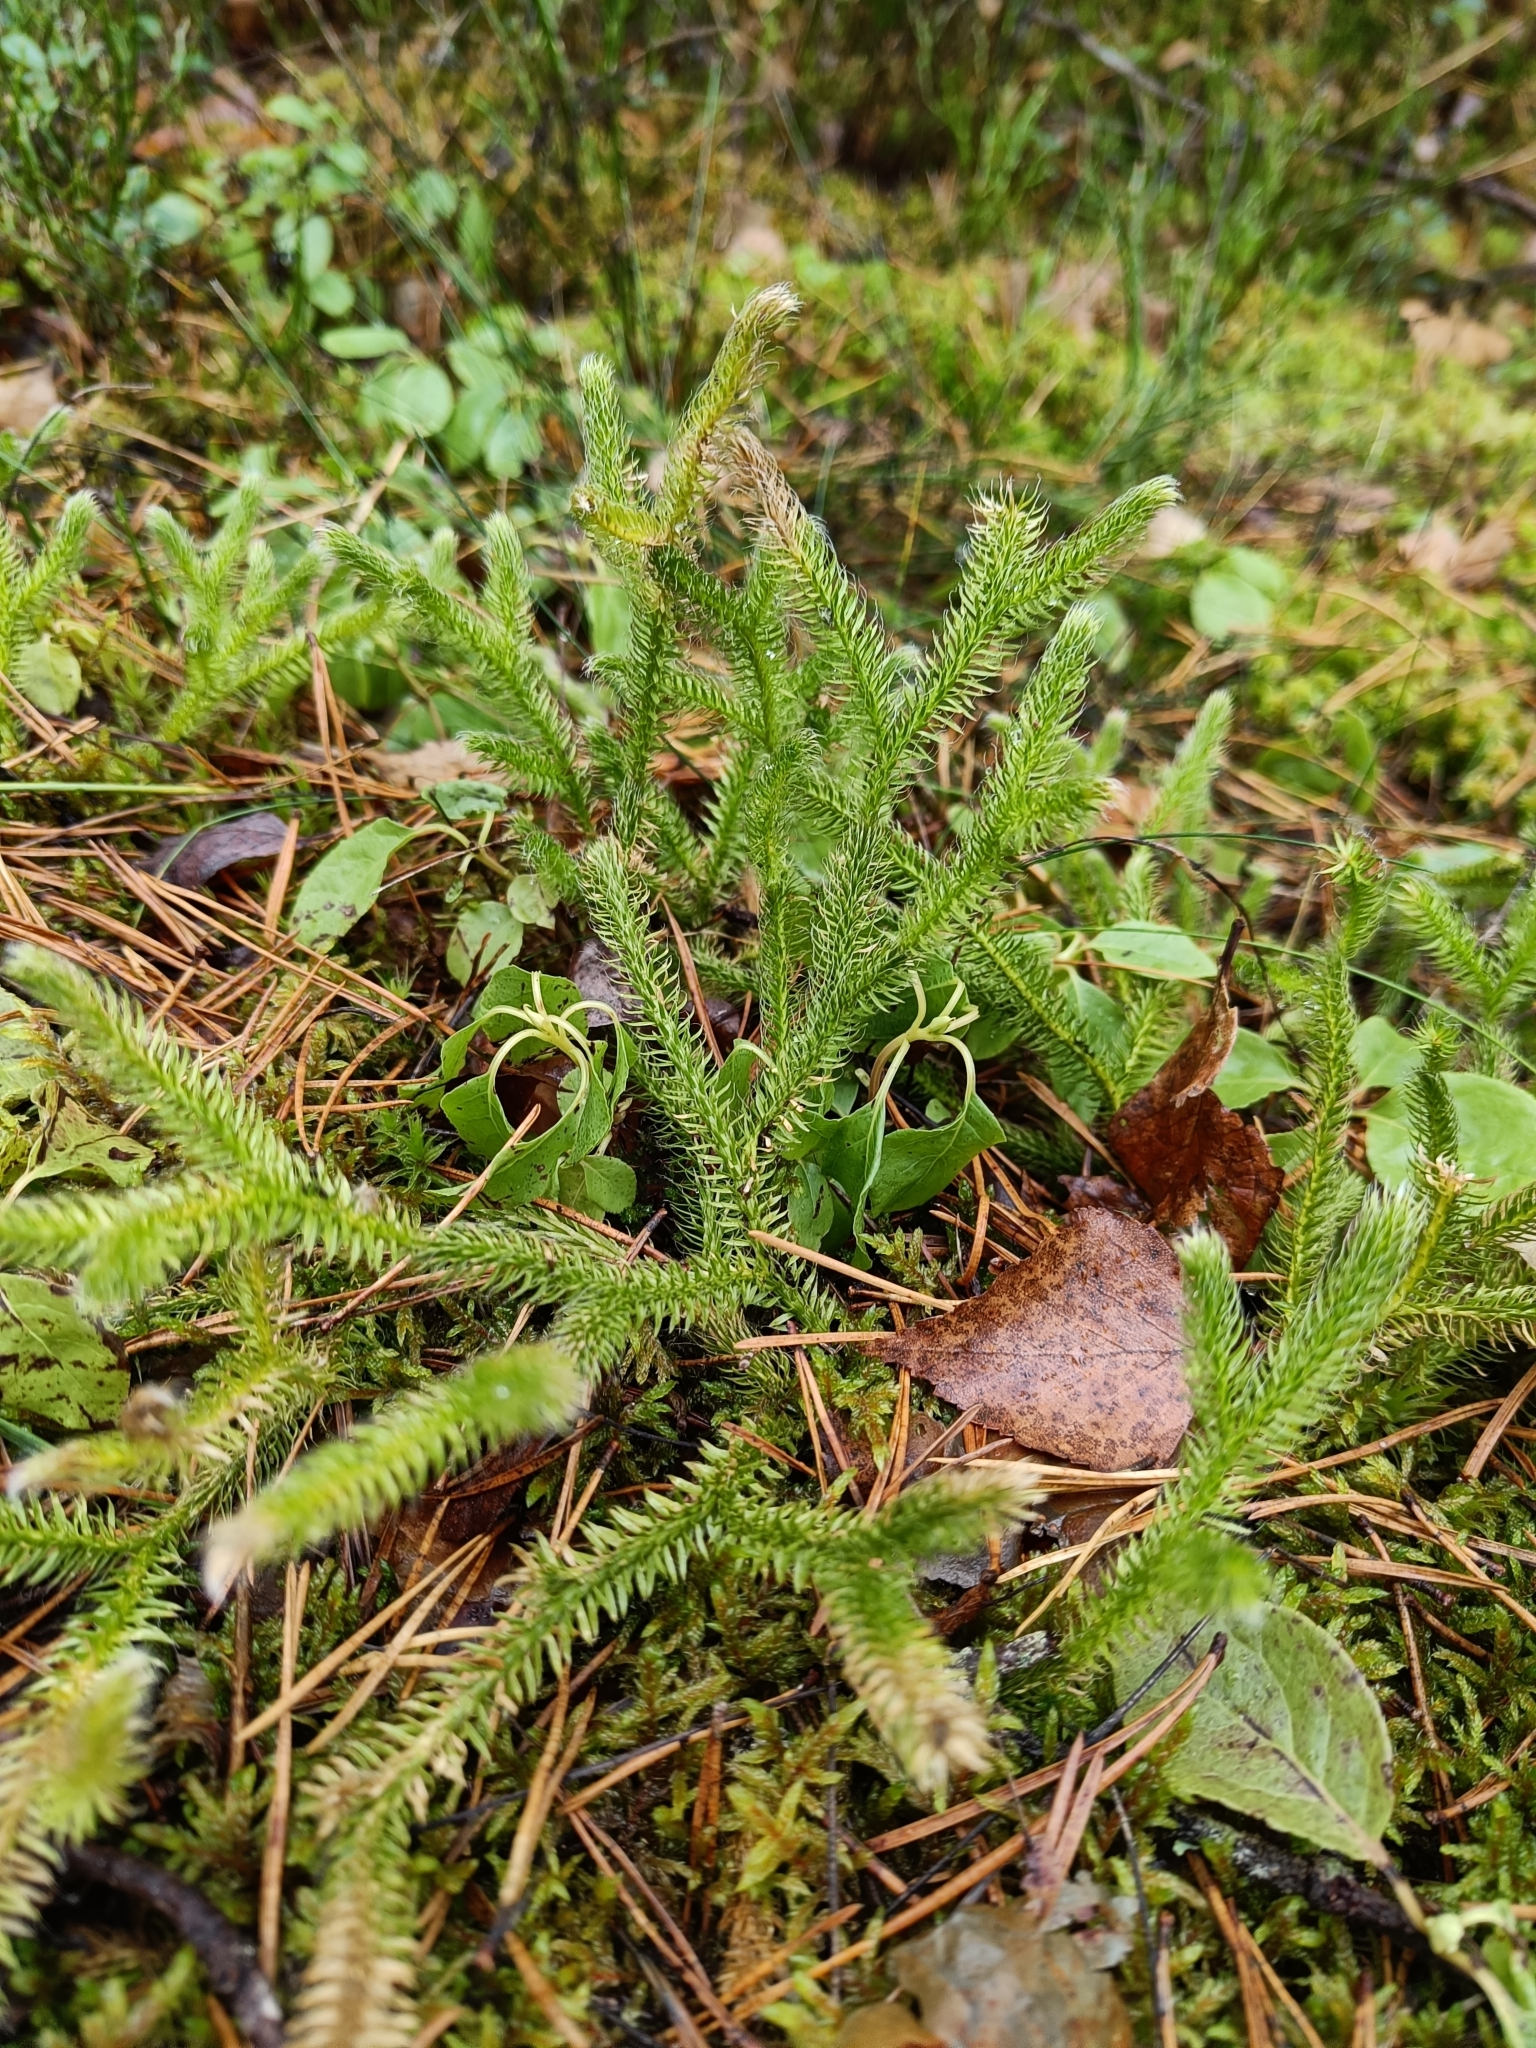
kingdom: Plantae
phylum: Tracheophyta
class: Lycopodiopsida
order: Lycopodiales
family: Lycopodiaceae
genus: Lycopodium
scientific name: Lycopodium clavatum
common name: Stag's-horn clubmoss
